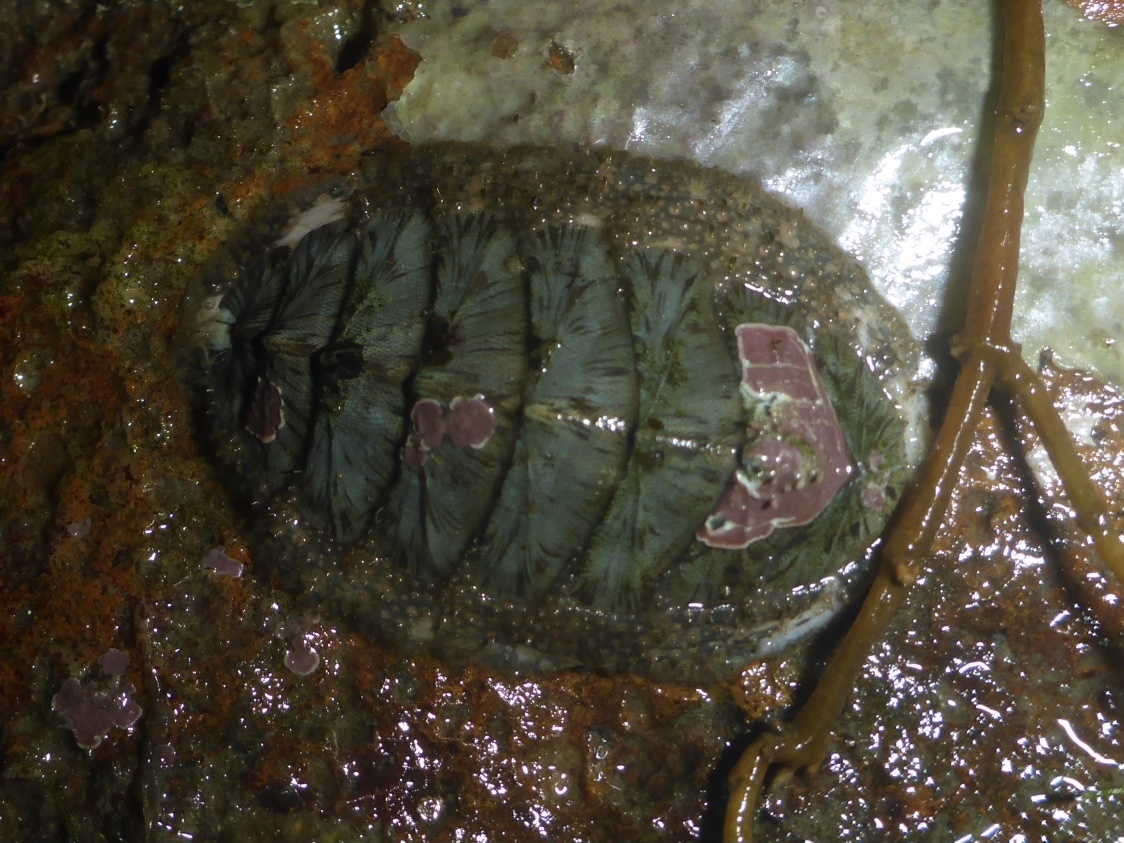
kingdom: Animalia
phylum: Mollusca
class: Polyplacophora
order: Chitonida
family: Mopaliidae
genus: Mopalia
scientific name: Mopalia lignosa
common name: Woody chiton
